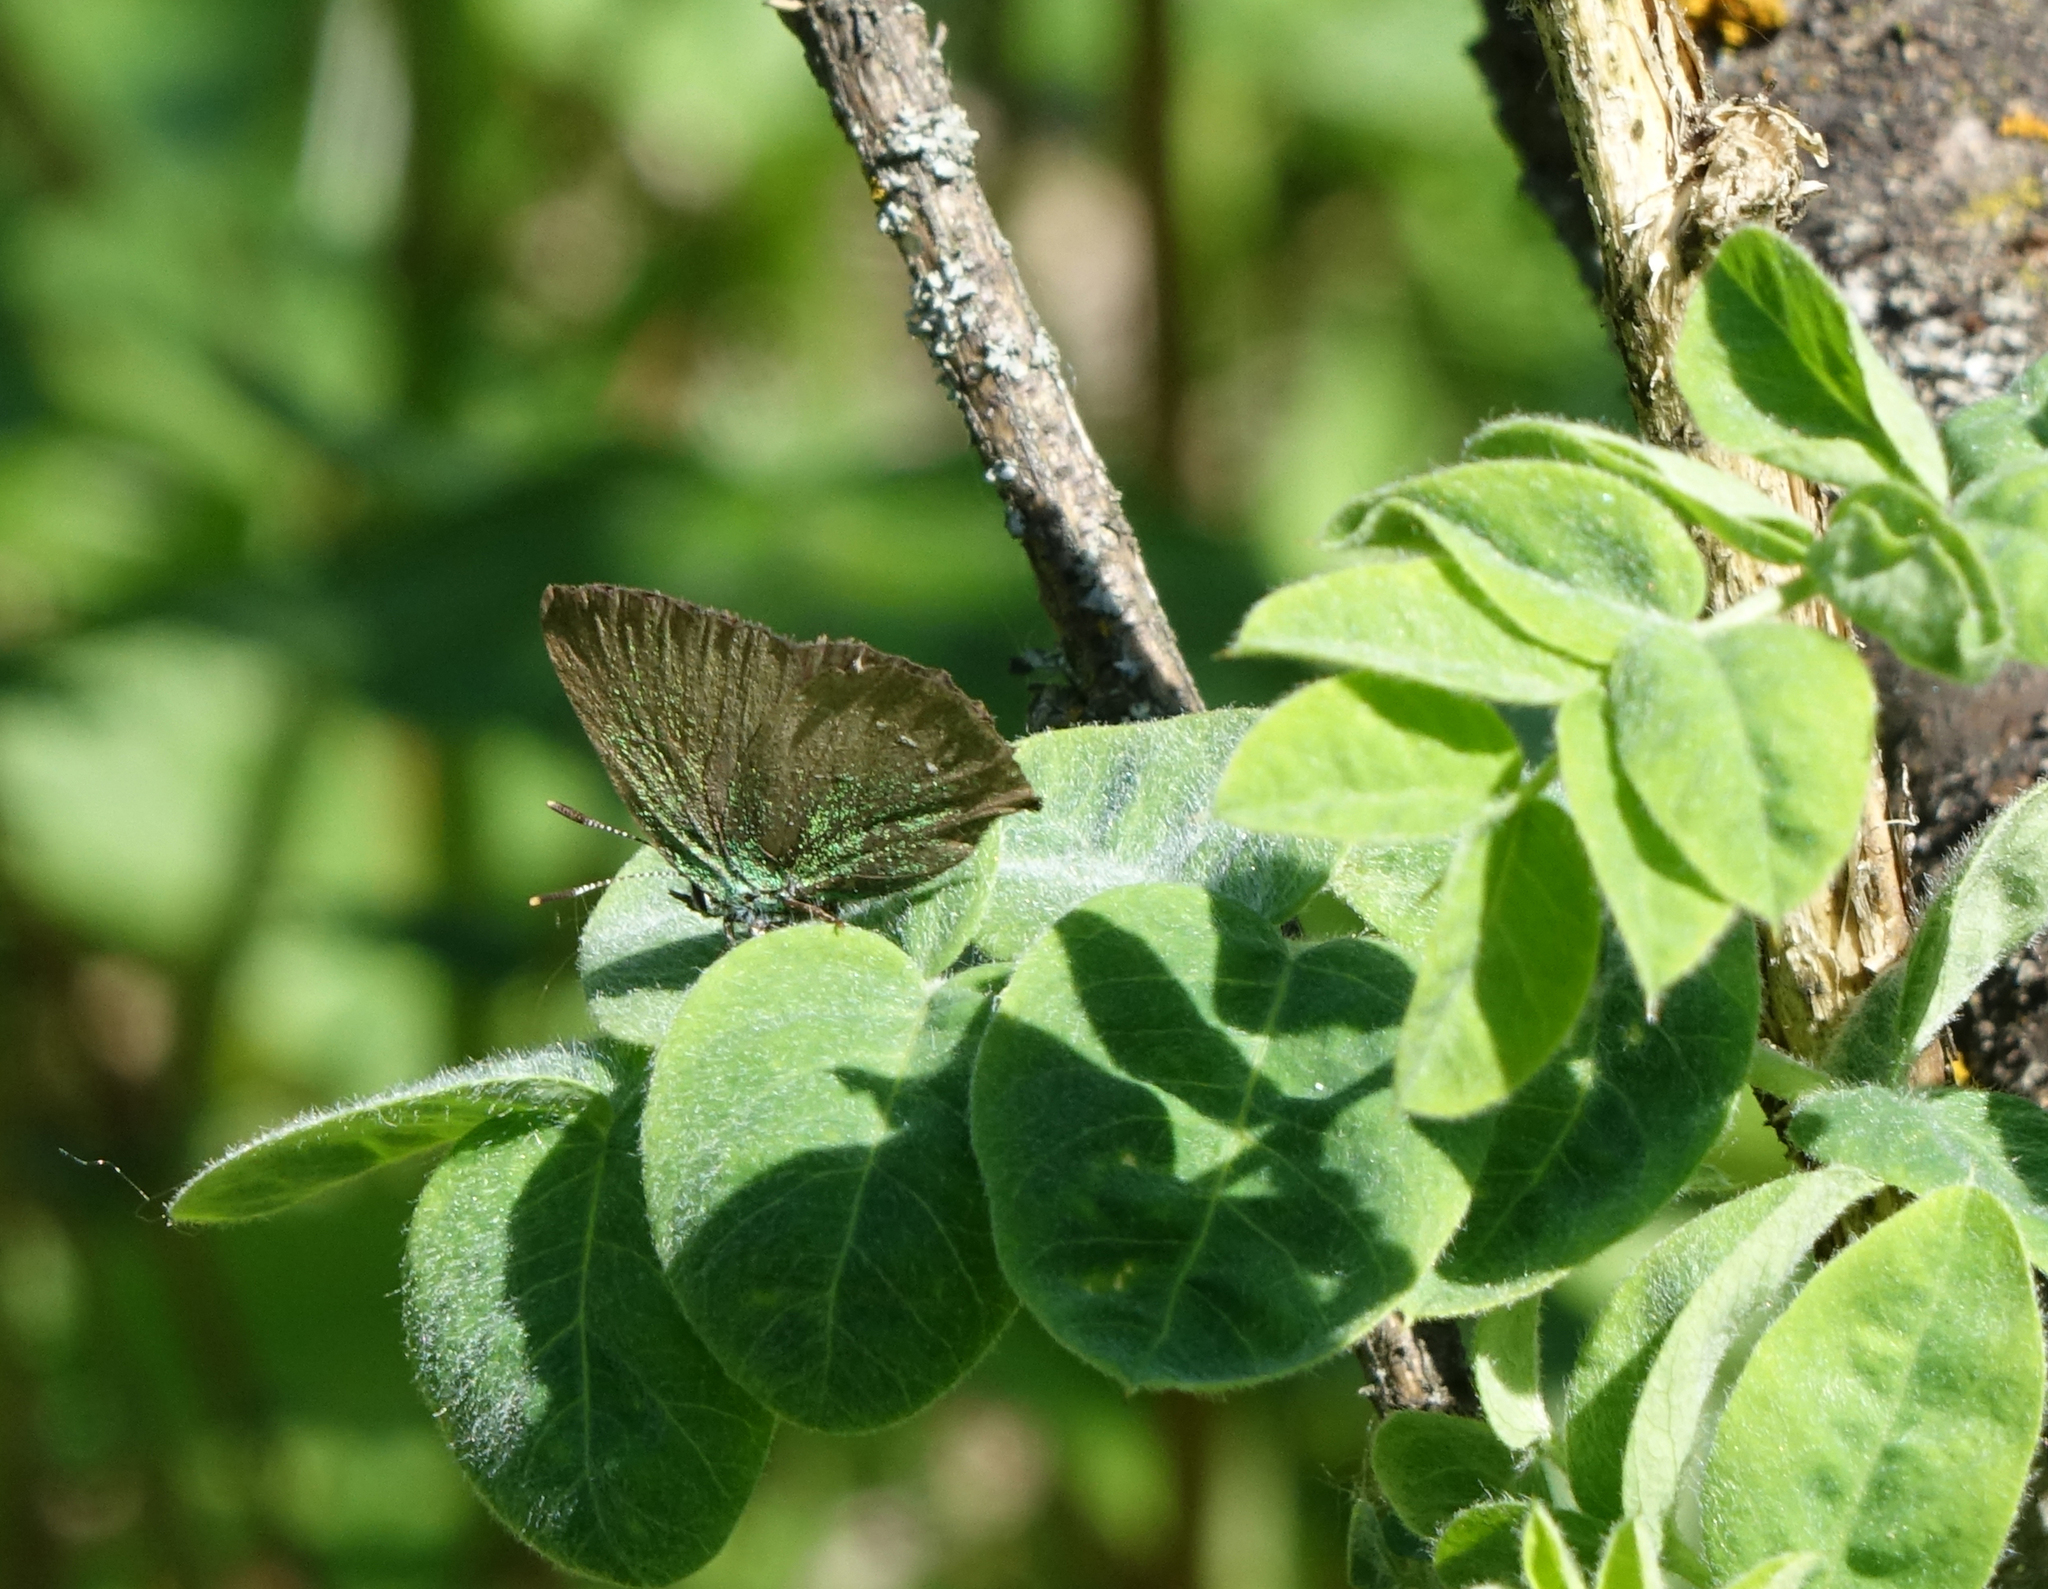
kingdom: Animalia
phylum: Arthropoda
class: Insecta
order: Lepidoptera
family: Lycaenidae
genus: Callophrys
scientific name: Callophrys rubi
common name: Green hairstreak
